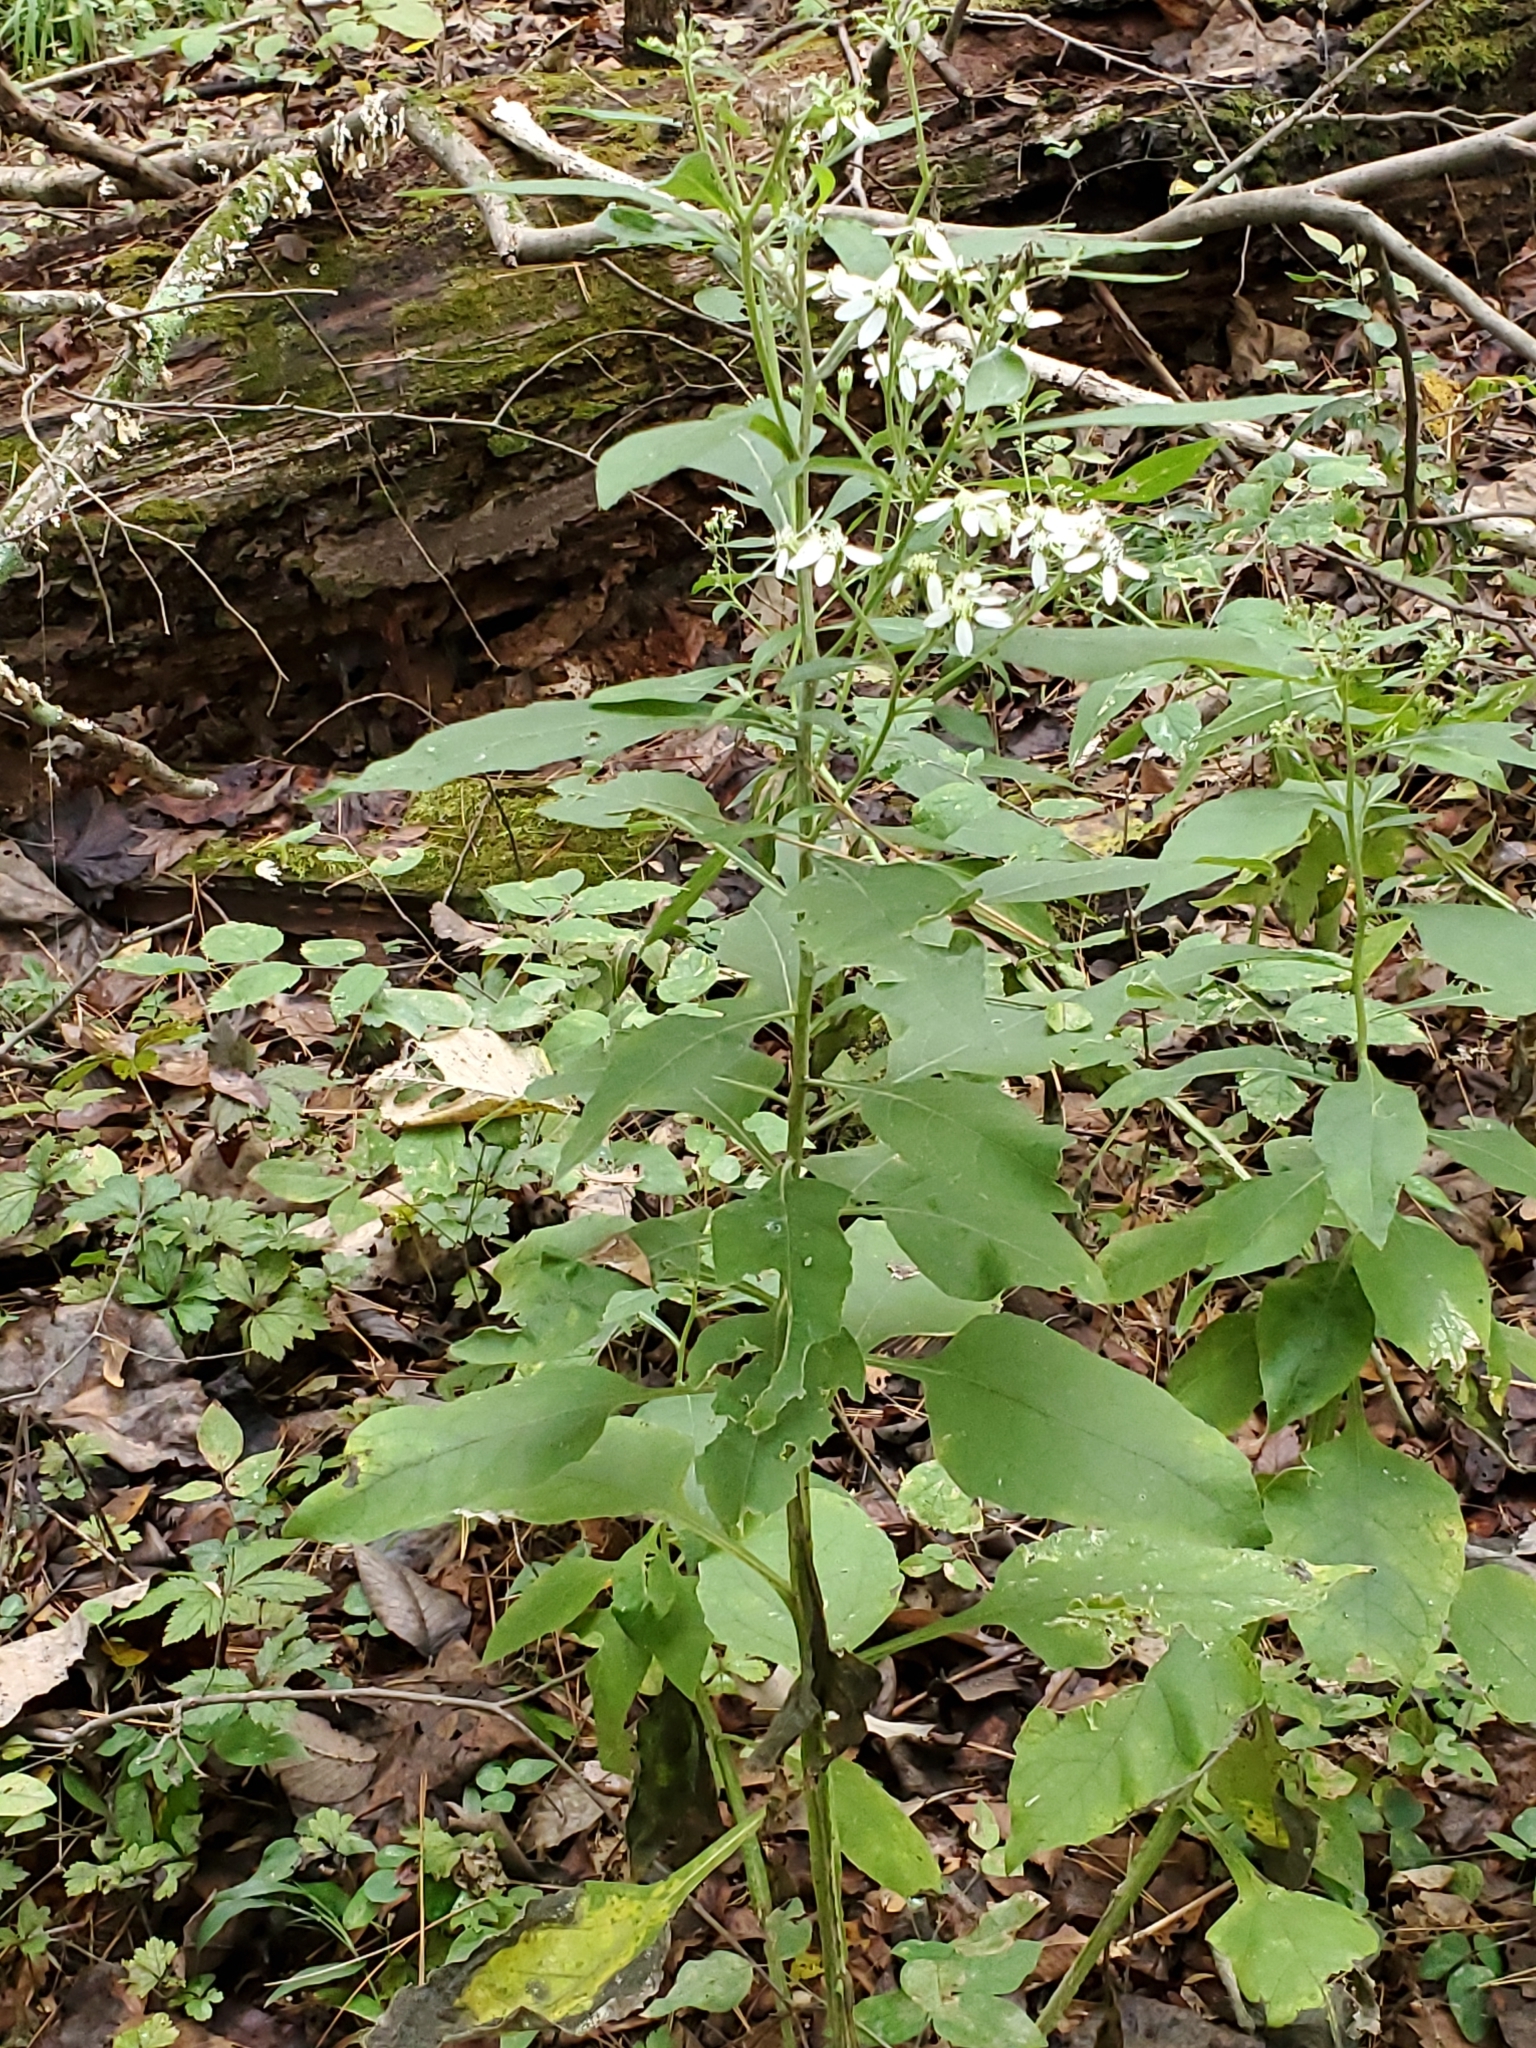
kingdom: Plantae
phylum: Tracheophyta
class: Magnoliopsida
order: Asterales
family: Asteraceae
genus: Verbesina
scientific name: Verbesina virginica
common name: Frostweed
